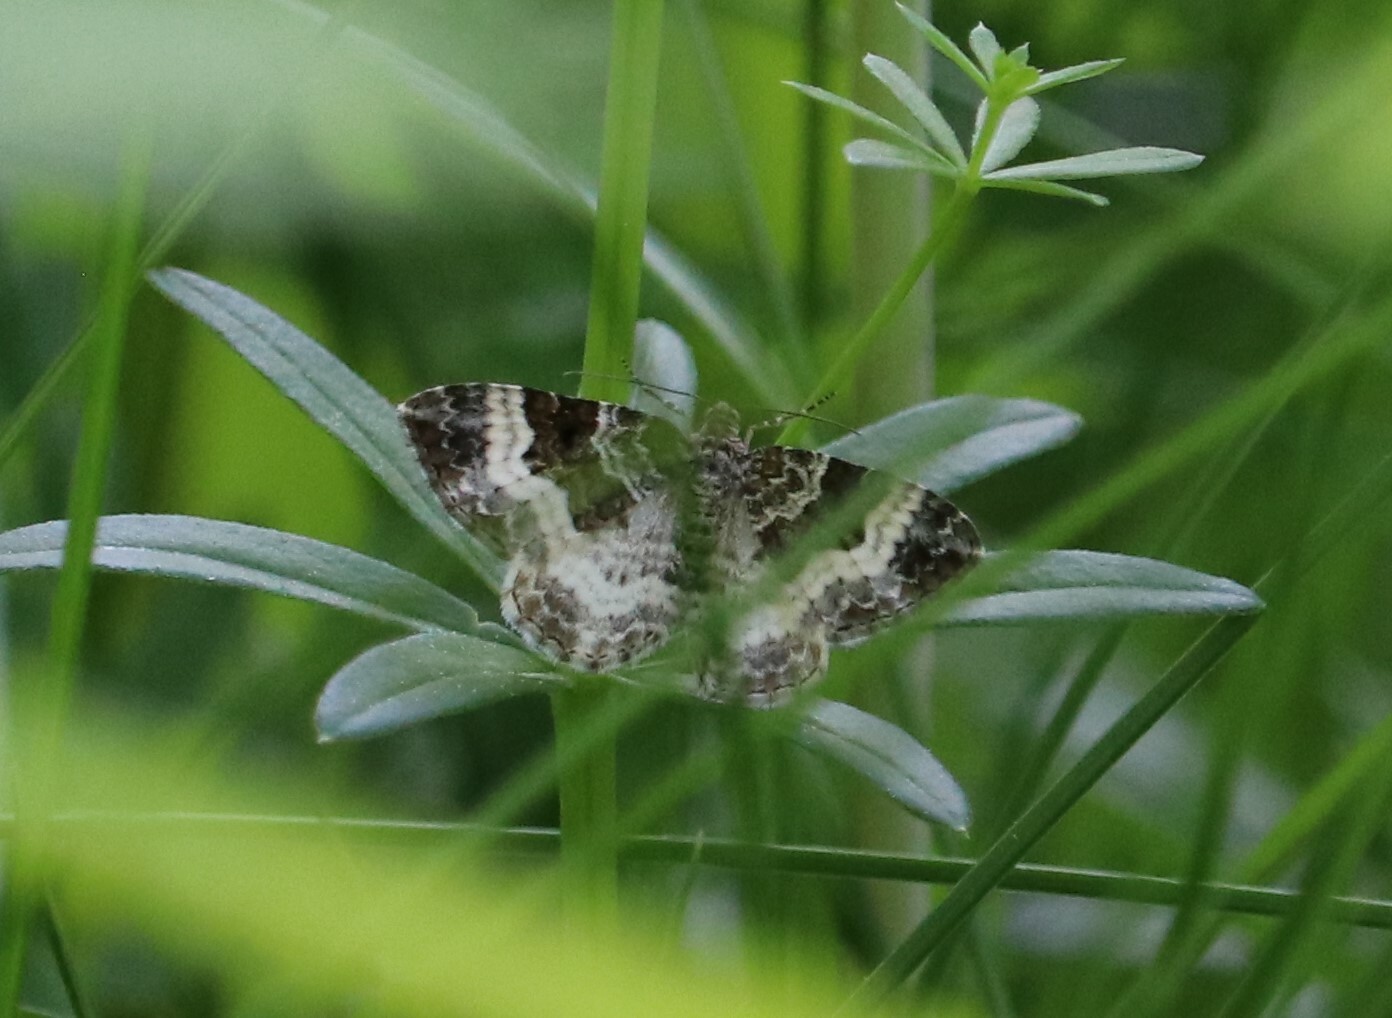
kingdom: Animalia
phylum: Arthropoda
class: Insecta
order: Lepidoptera
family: Geometridae
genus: Epirrhoe
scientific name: Epirrhoe alternata
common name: Common carpet
